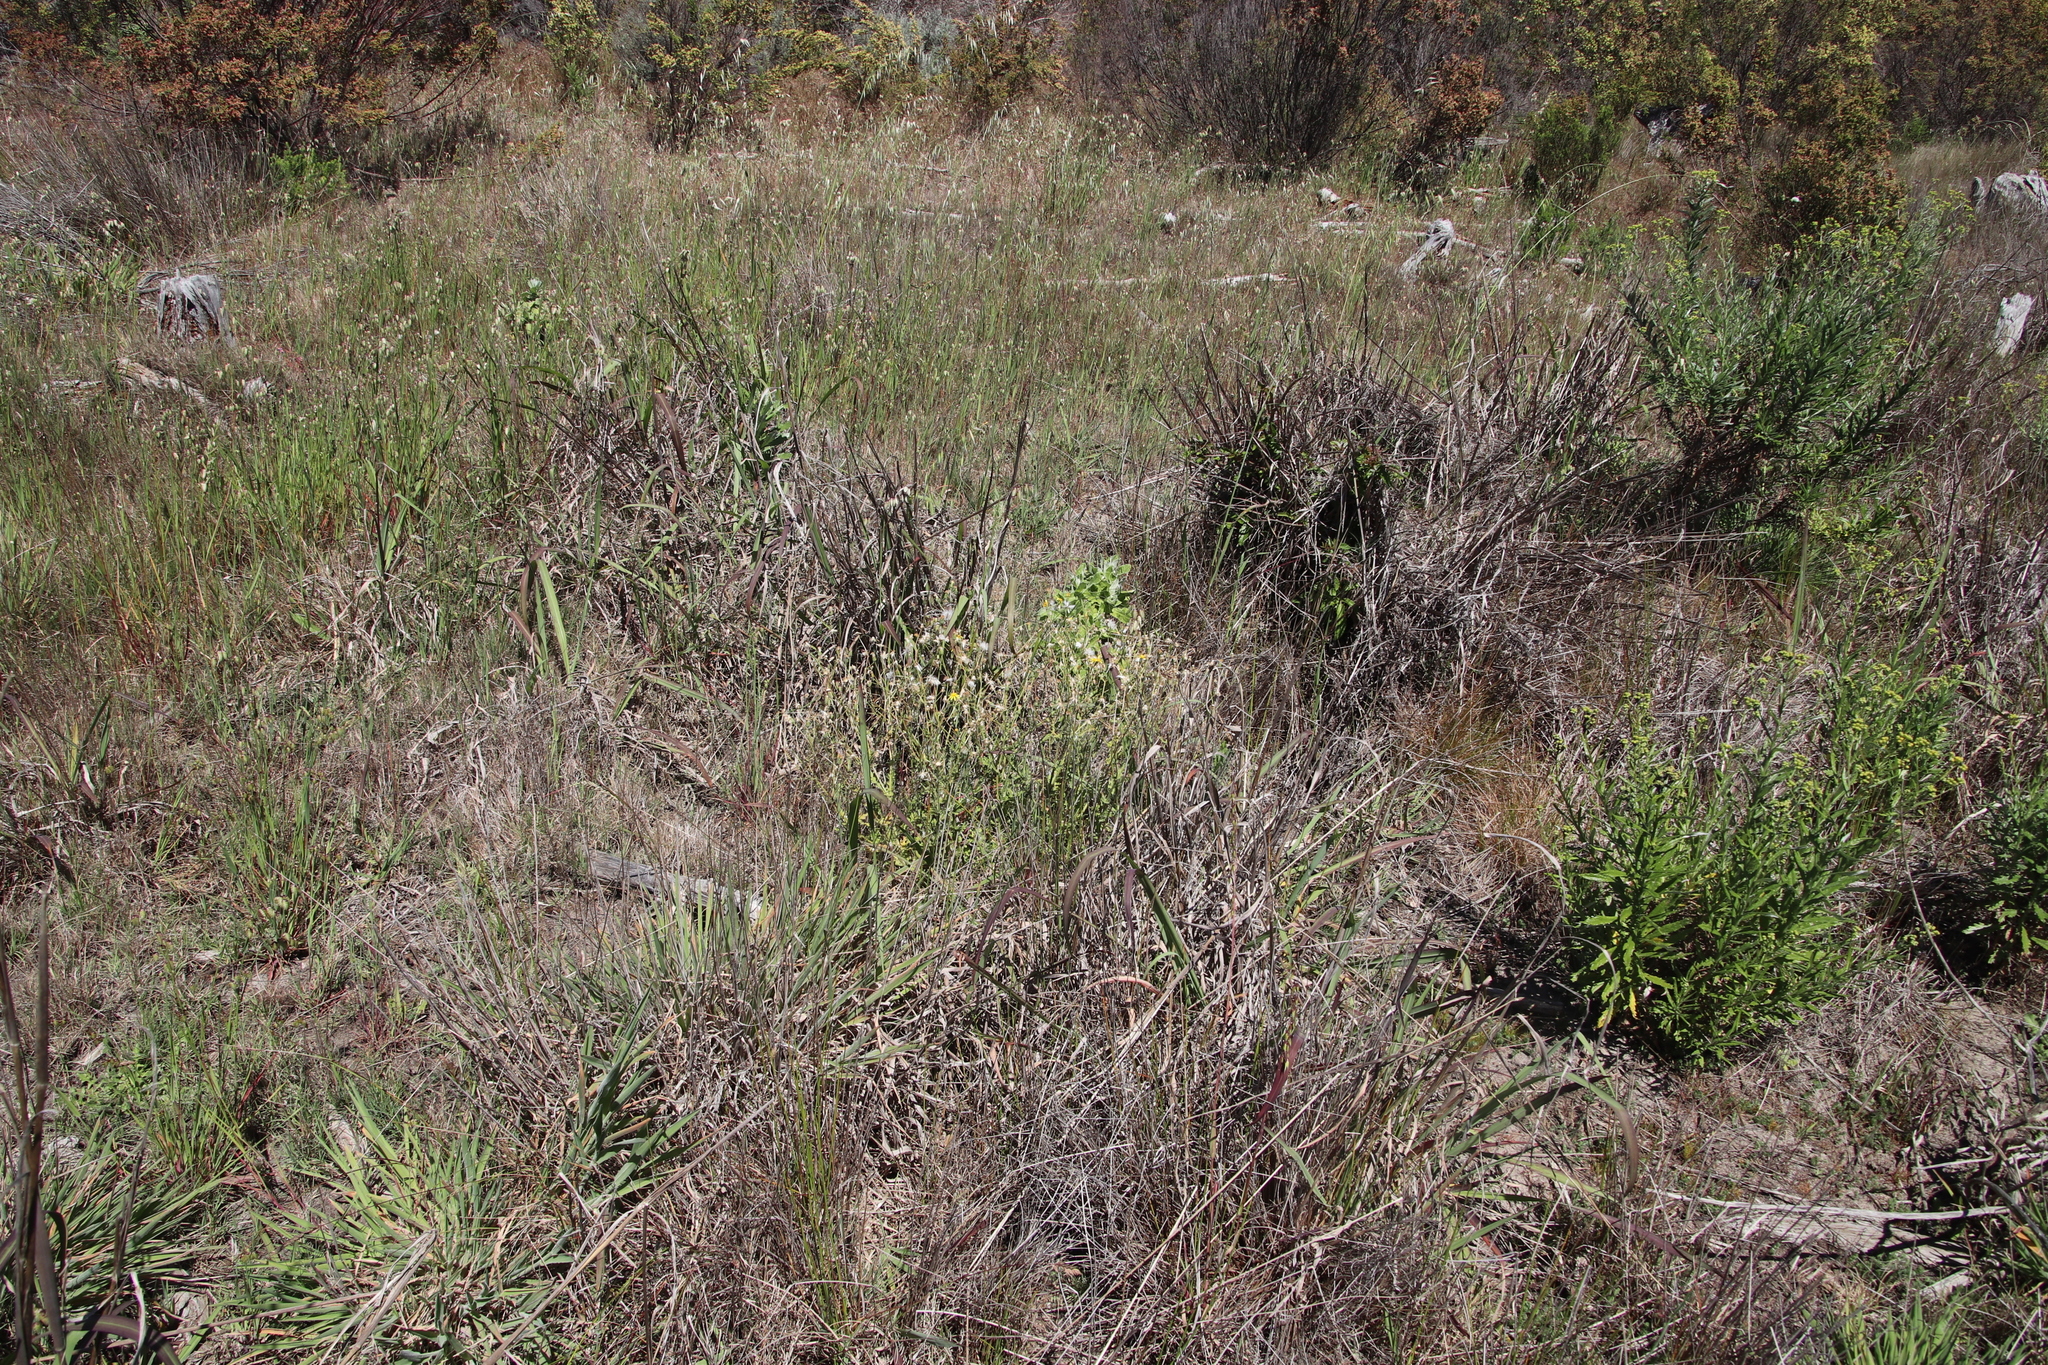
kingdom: Plantae
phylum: Tracheophyta
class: Magnoliopsida
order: Asterales
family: Asteraceae
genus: Senecio
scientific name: Senecio hastatus
